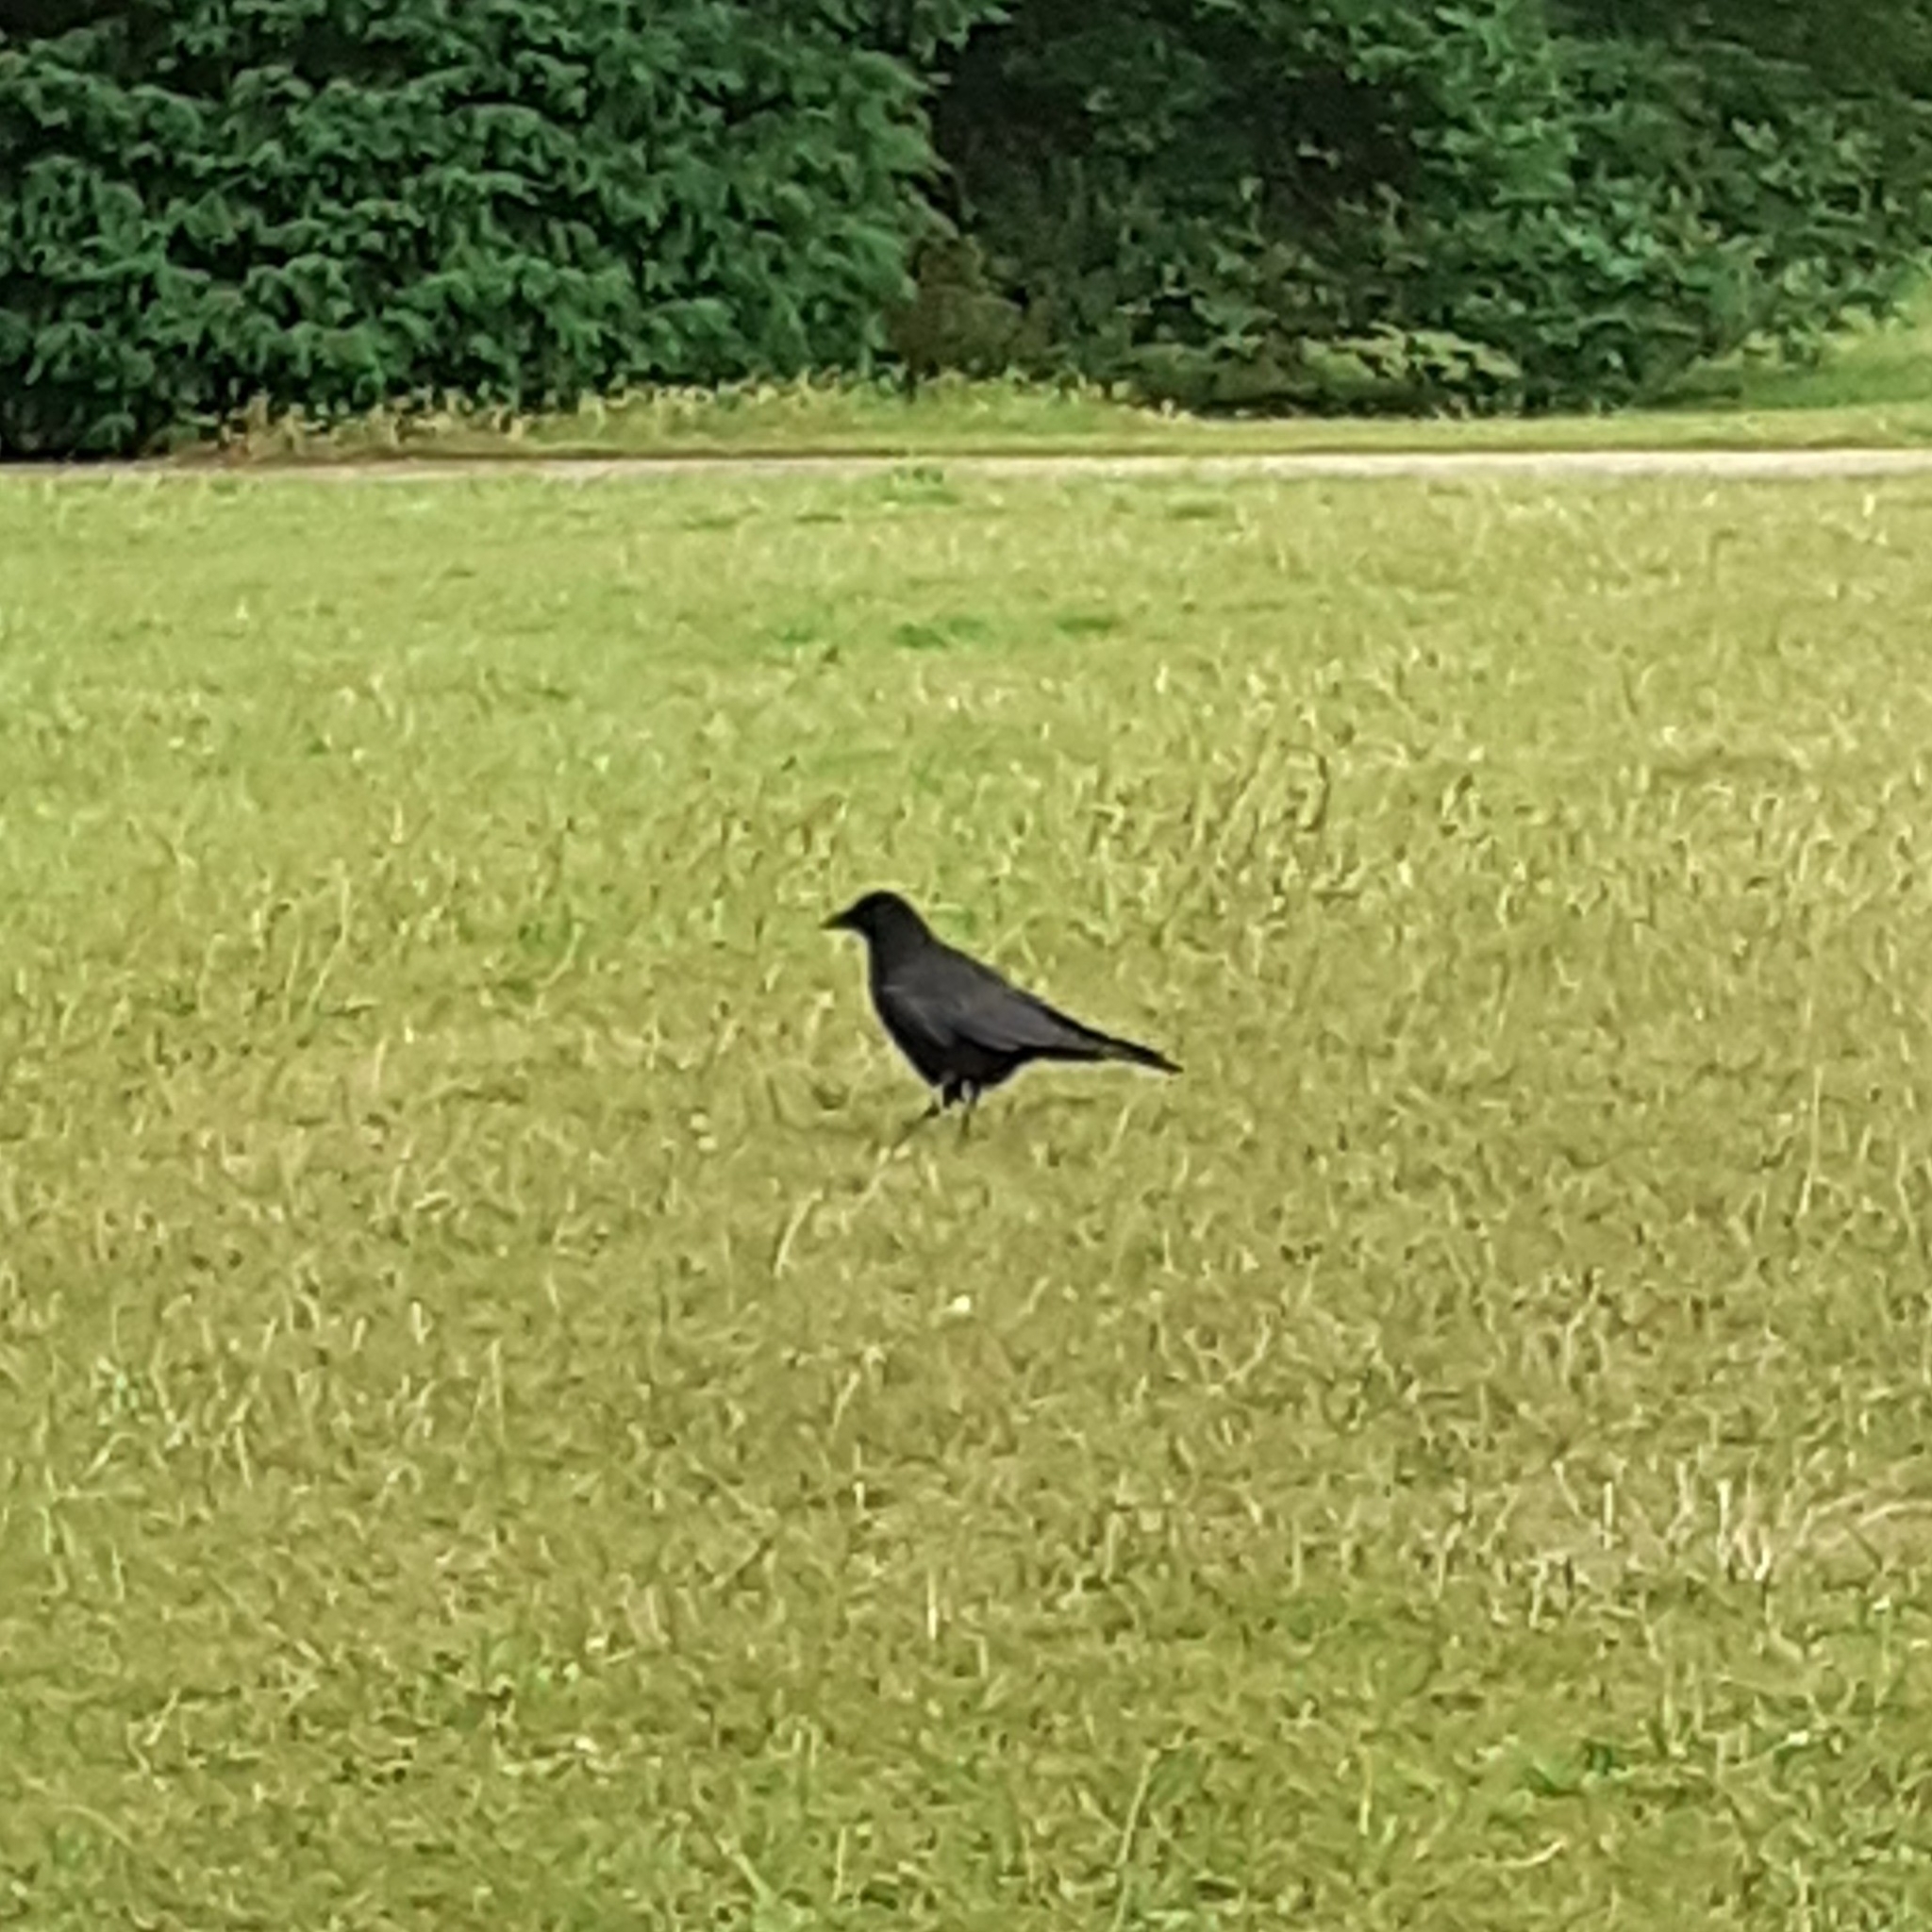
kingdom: Animalia
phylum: Chordata
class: Aves
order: Passeriformes
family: Corvidae
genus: Corvus
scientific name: Corvus corone
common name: Carrion crow
